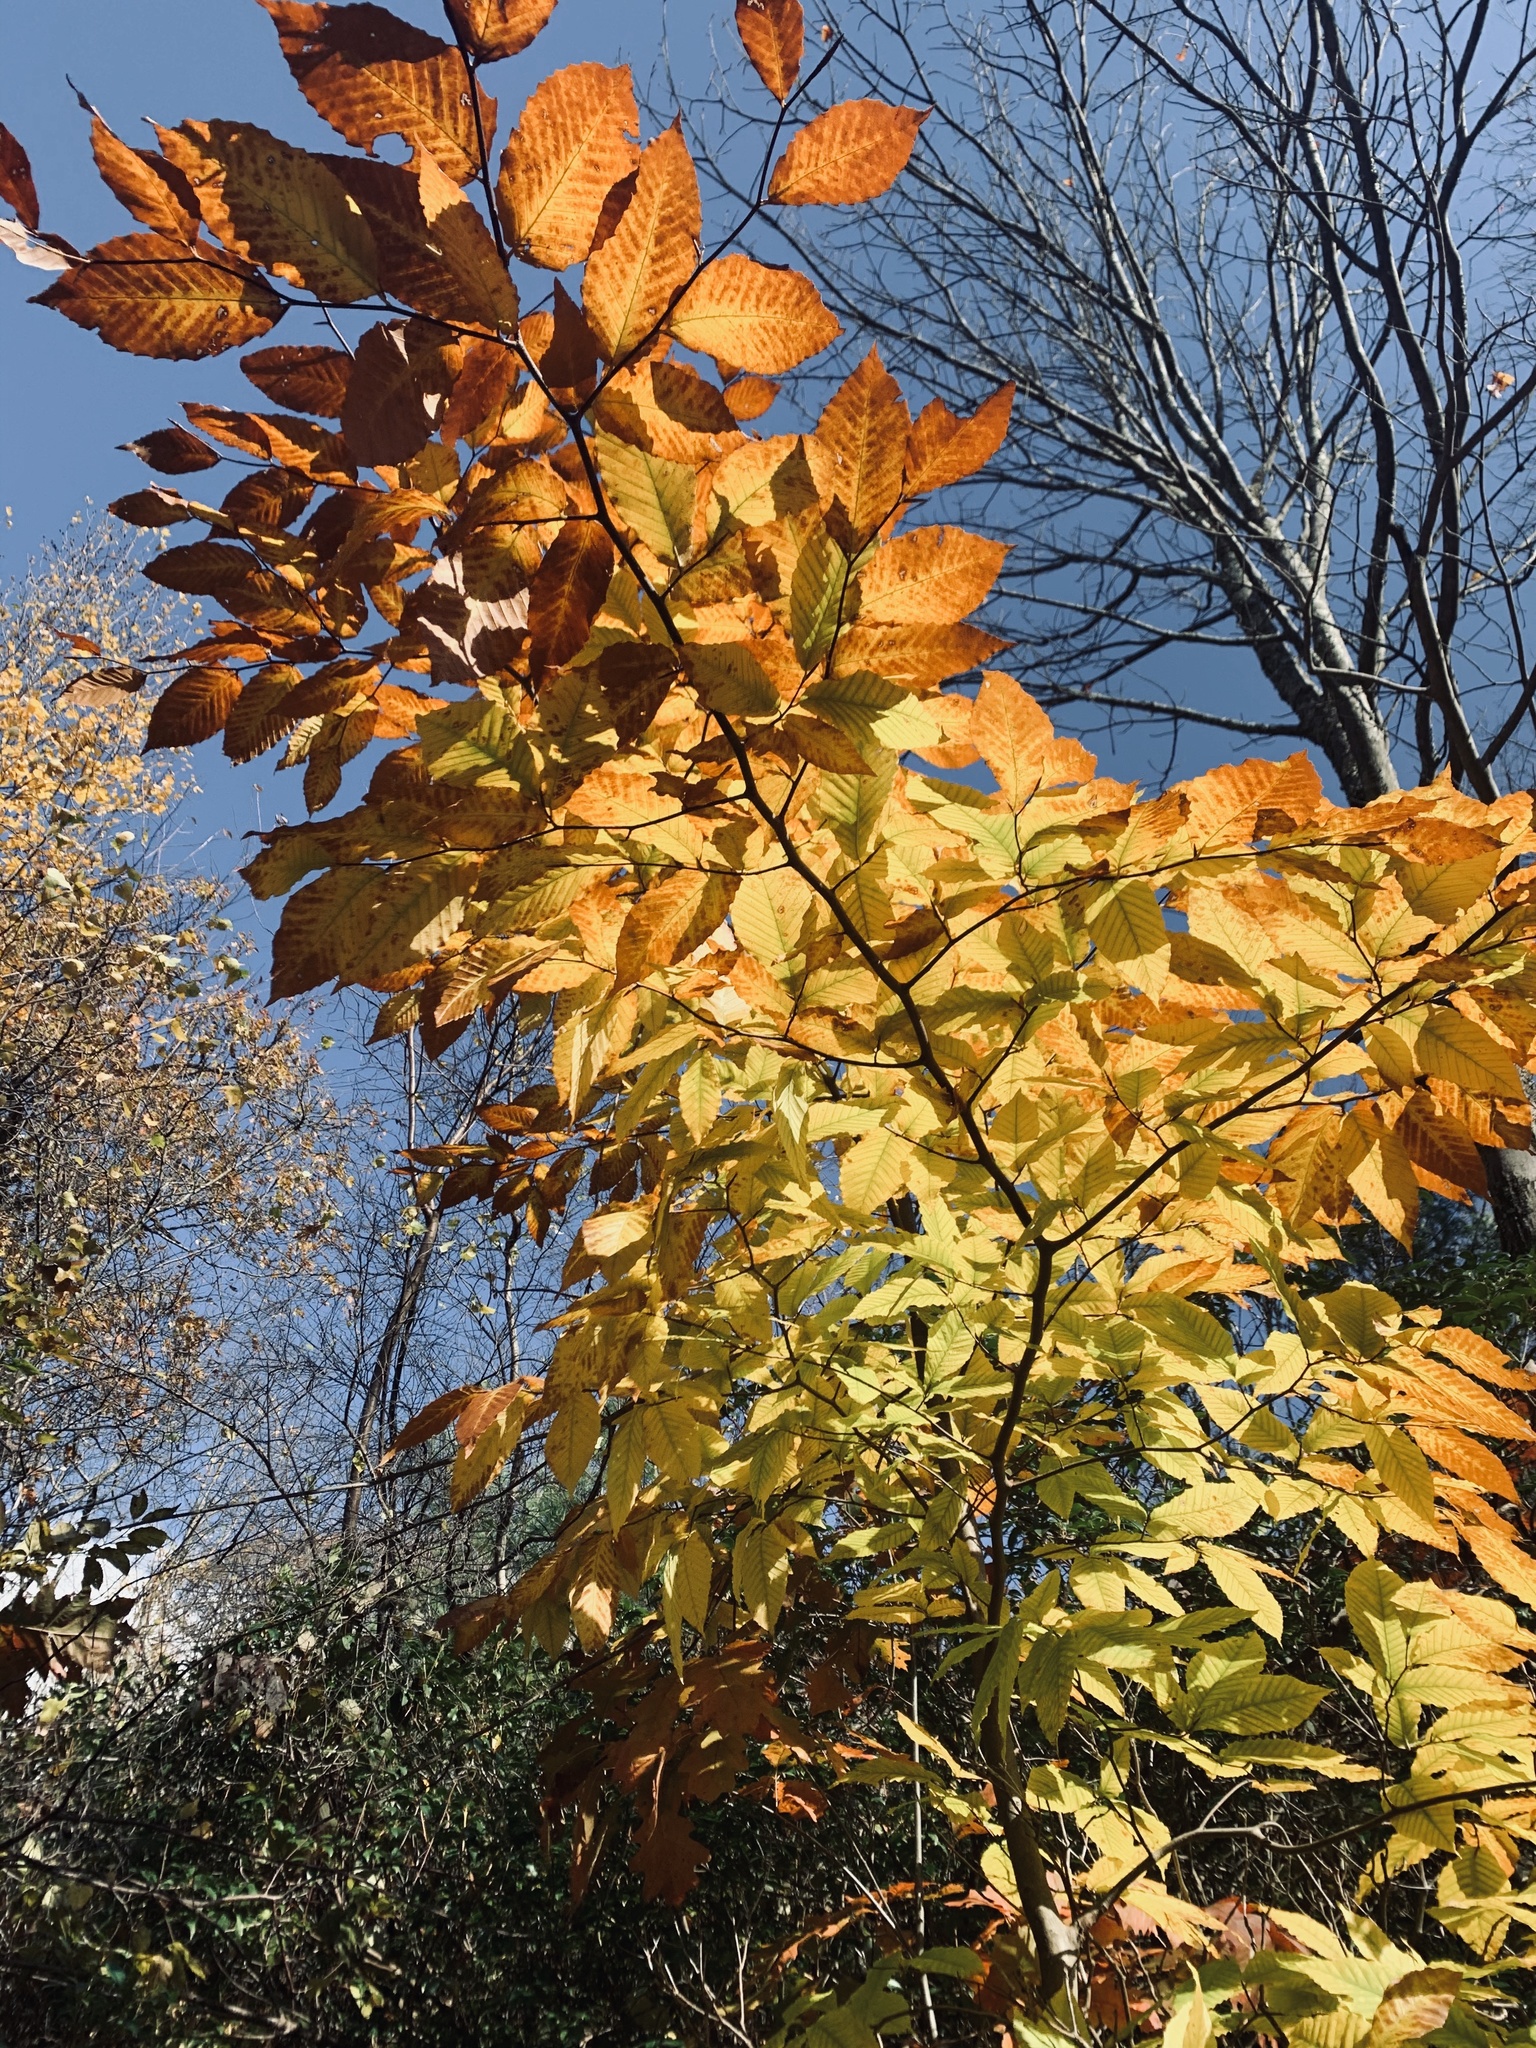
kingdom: Plantae
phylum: Tracheophyta
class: Magnoliopsida
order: Fagales
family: Fagaceae
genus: Fagus
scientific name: Fagus grandifolia
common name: American beech
